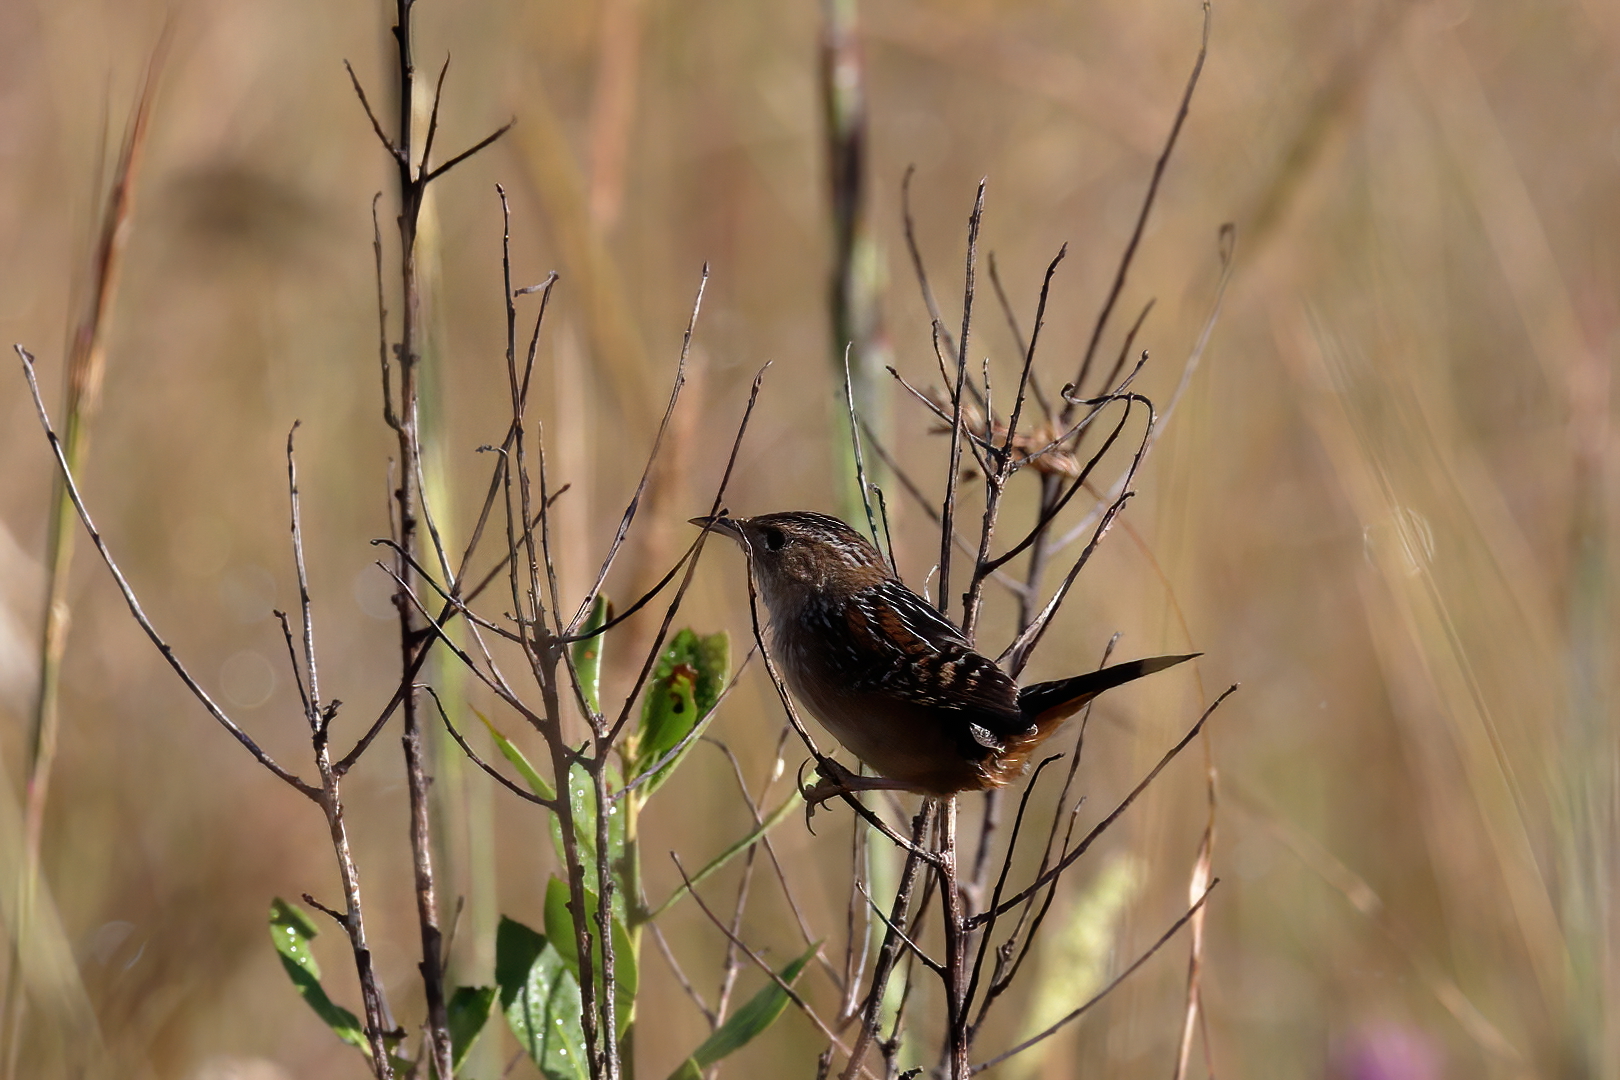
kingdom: Animalia
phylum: Chordata
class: Aves
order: Passeriformes
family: Troglodytidae
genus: Cistothorus
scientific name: Cistothorus palustris
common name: Marsh wren
